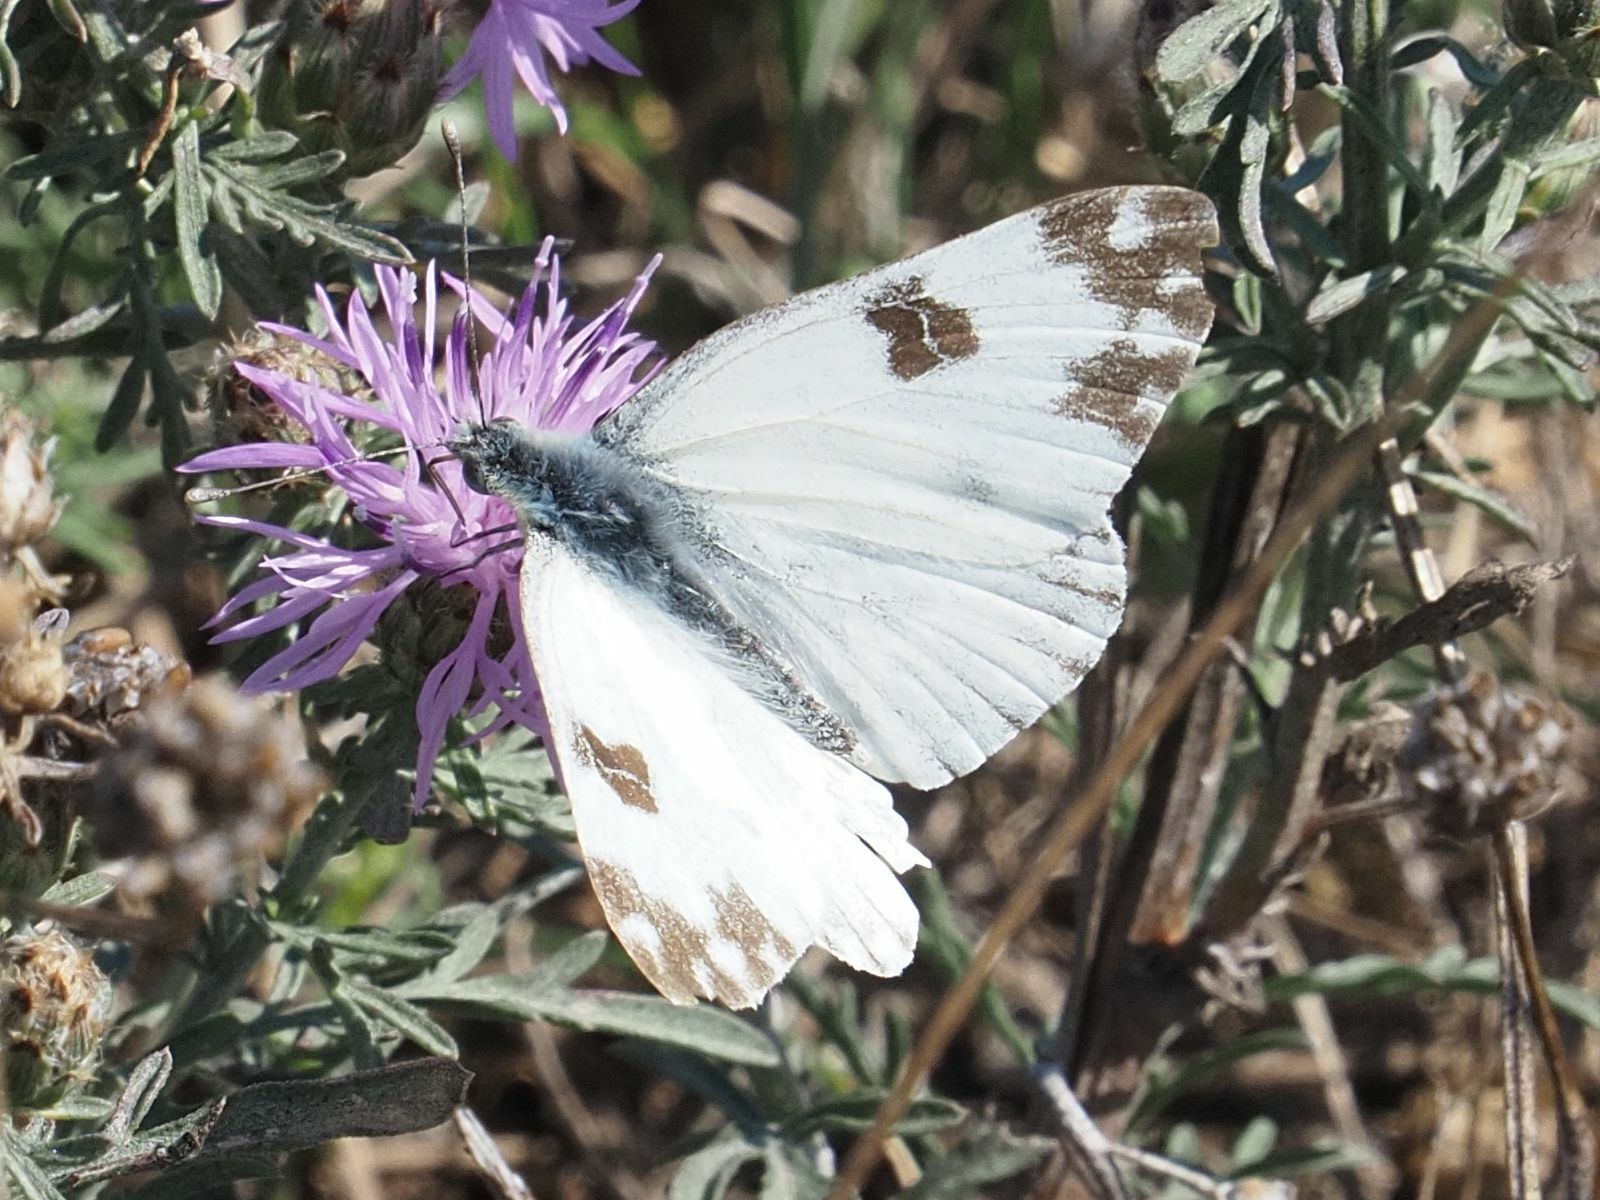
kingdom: Animalia
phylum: Arthropoda
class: Insecta
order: Lepidoptera
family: Pieridae
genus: Pontia
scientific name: Pontia edusa
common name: Eastern bath white
